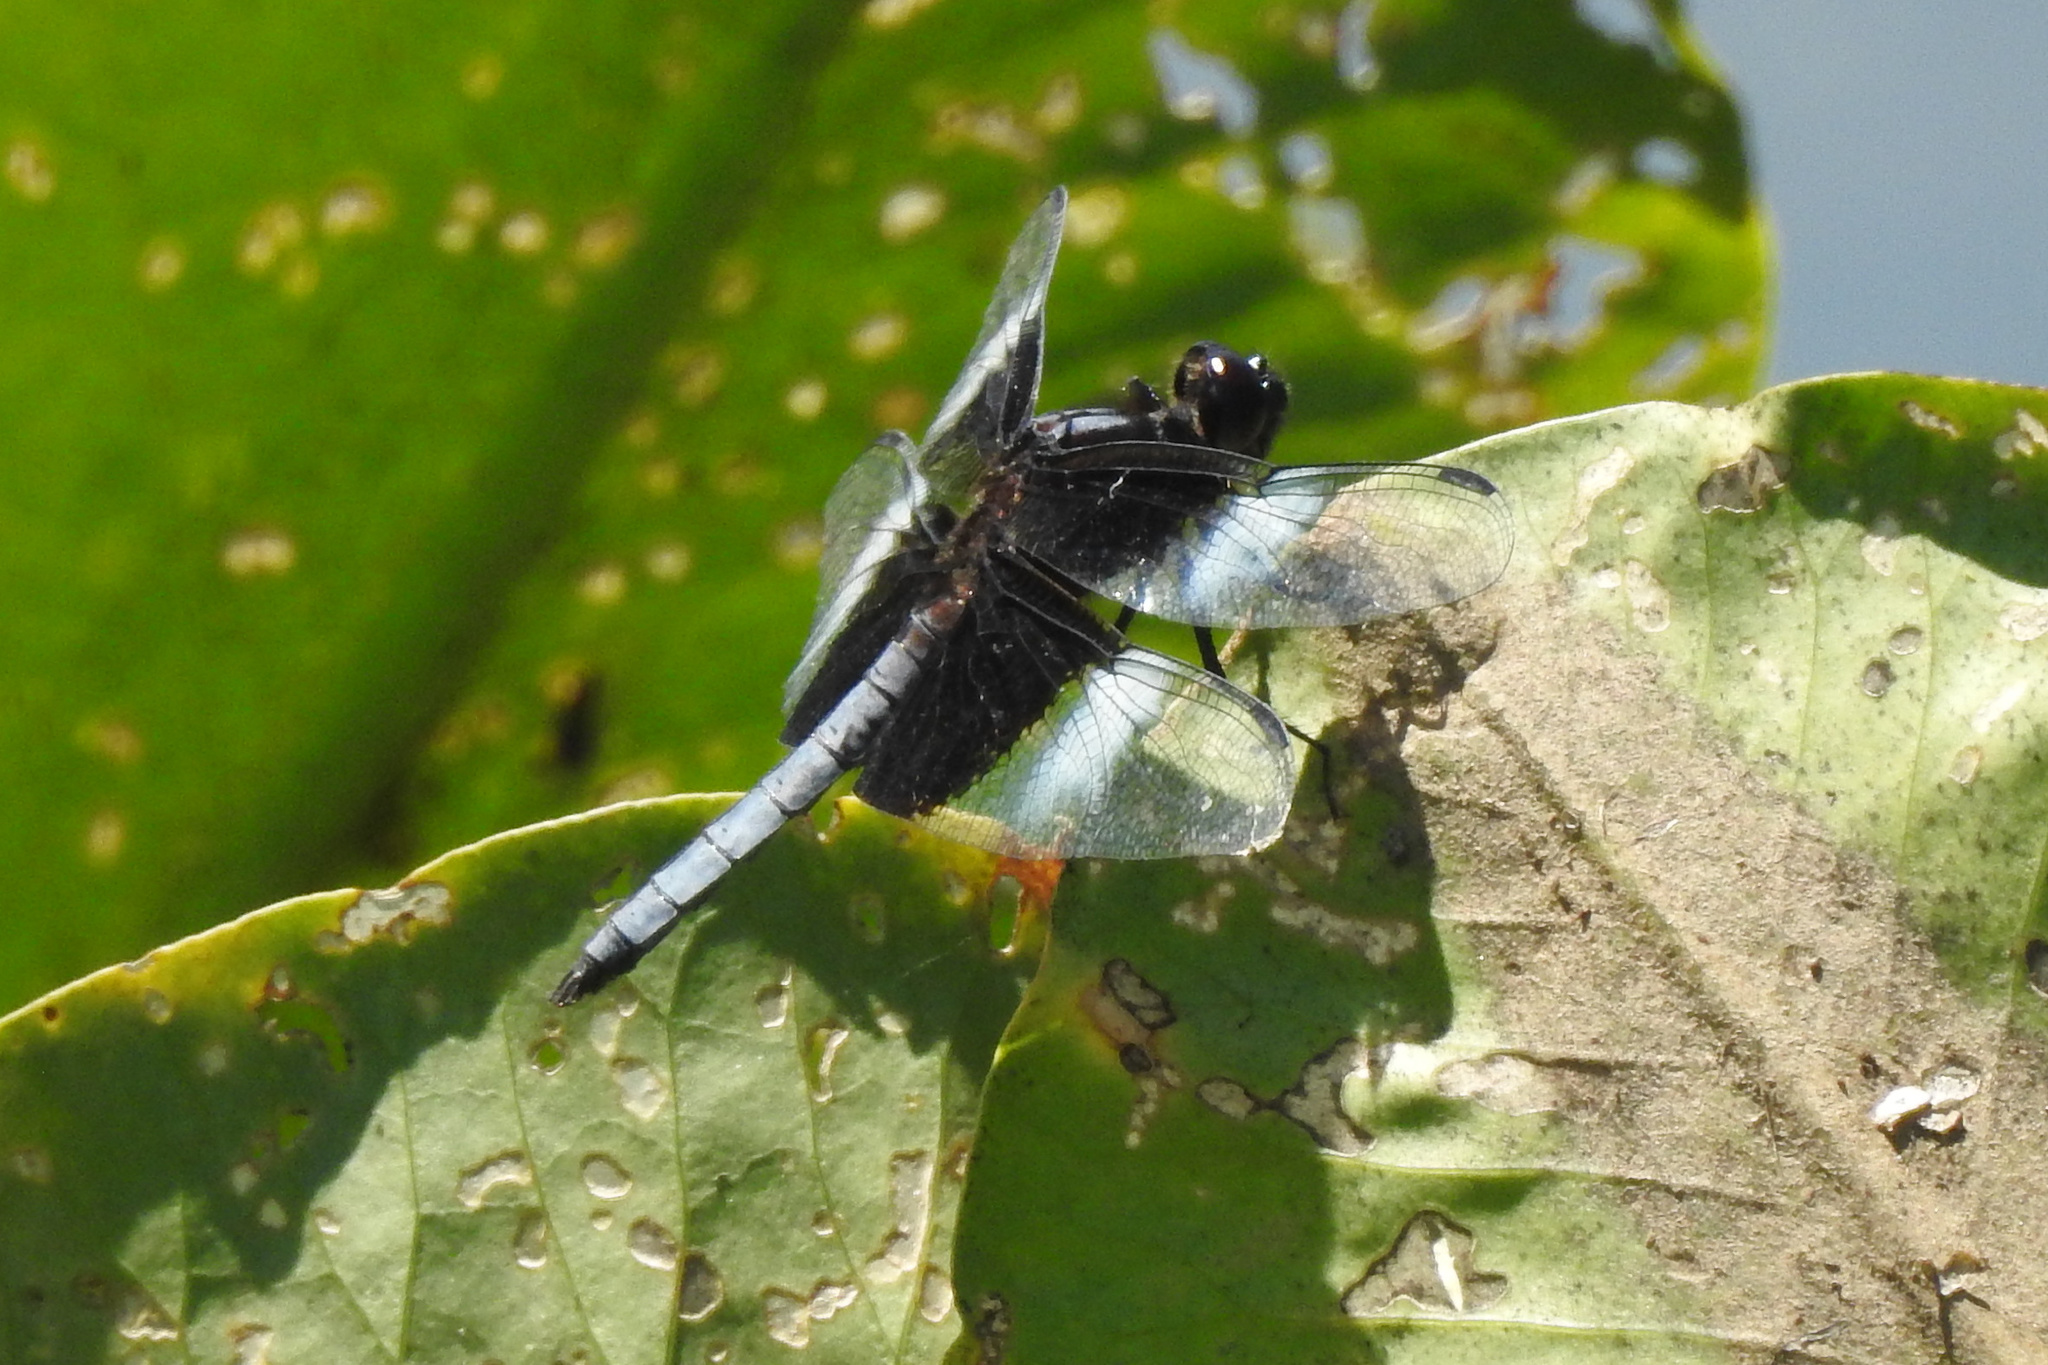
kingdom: Animalia
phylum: Arthropoda
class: Insecta
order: Odonata
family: Libellulidae
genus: Libellula
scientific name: Libellula luctuosa
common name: Widow skimmer
